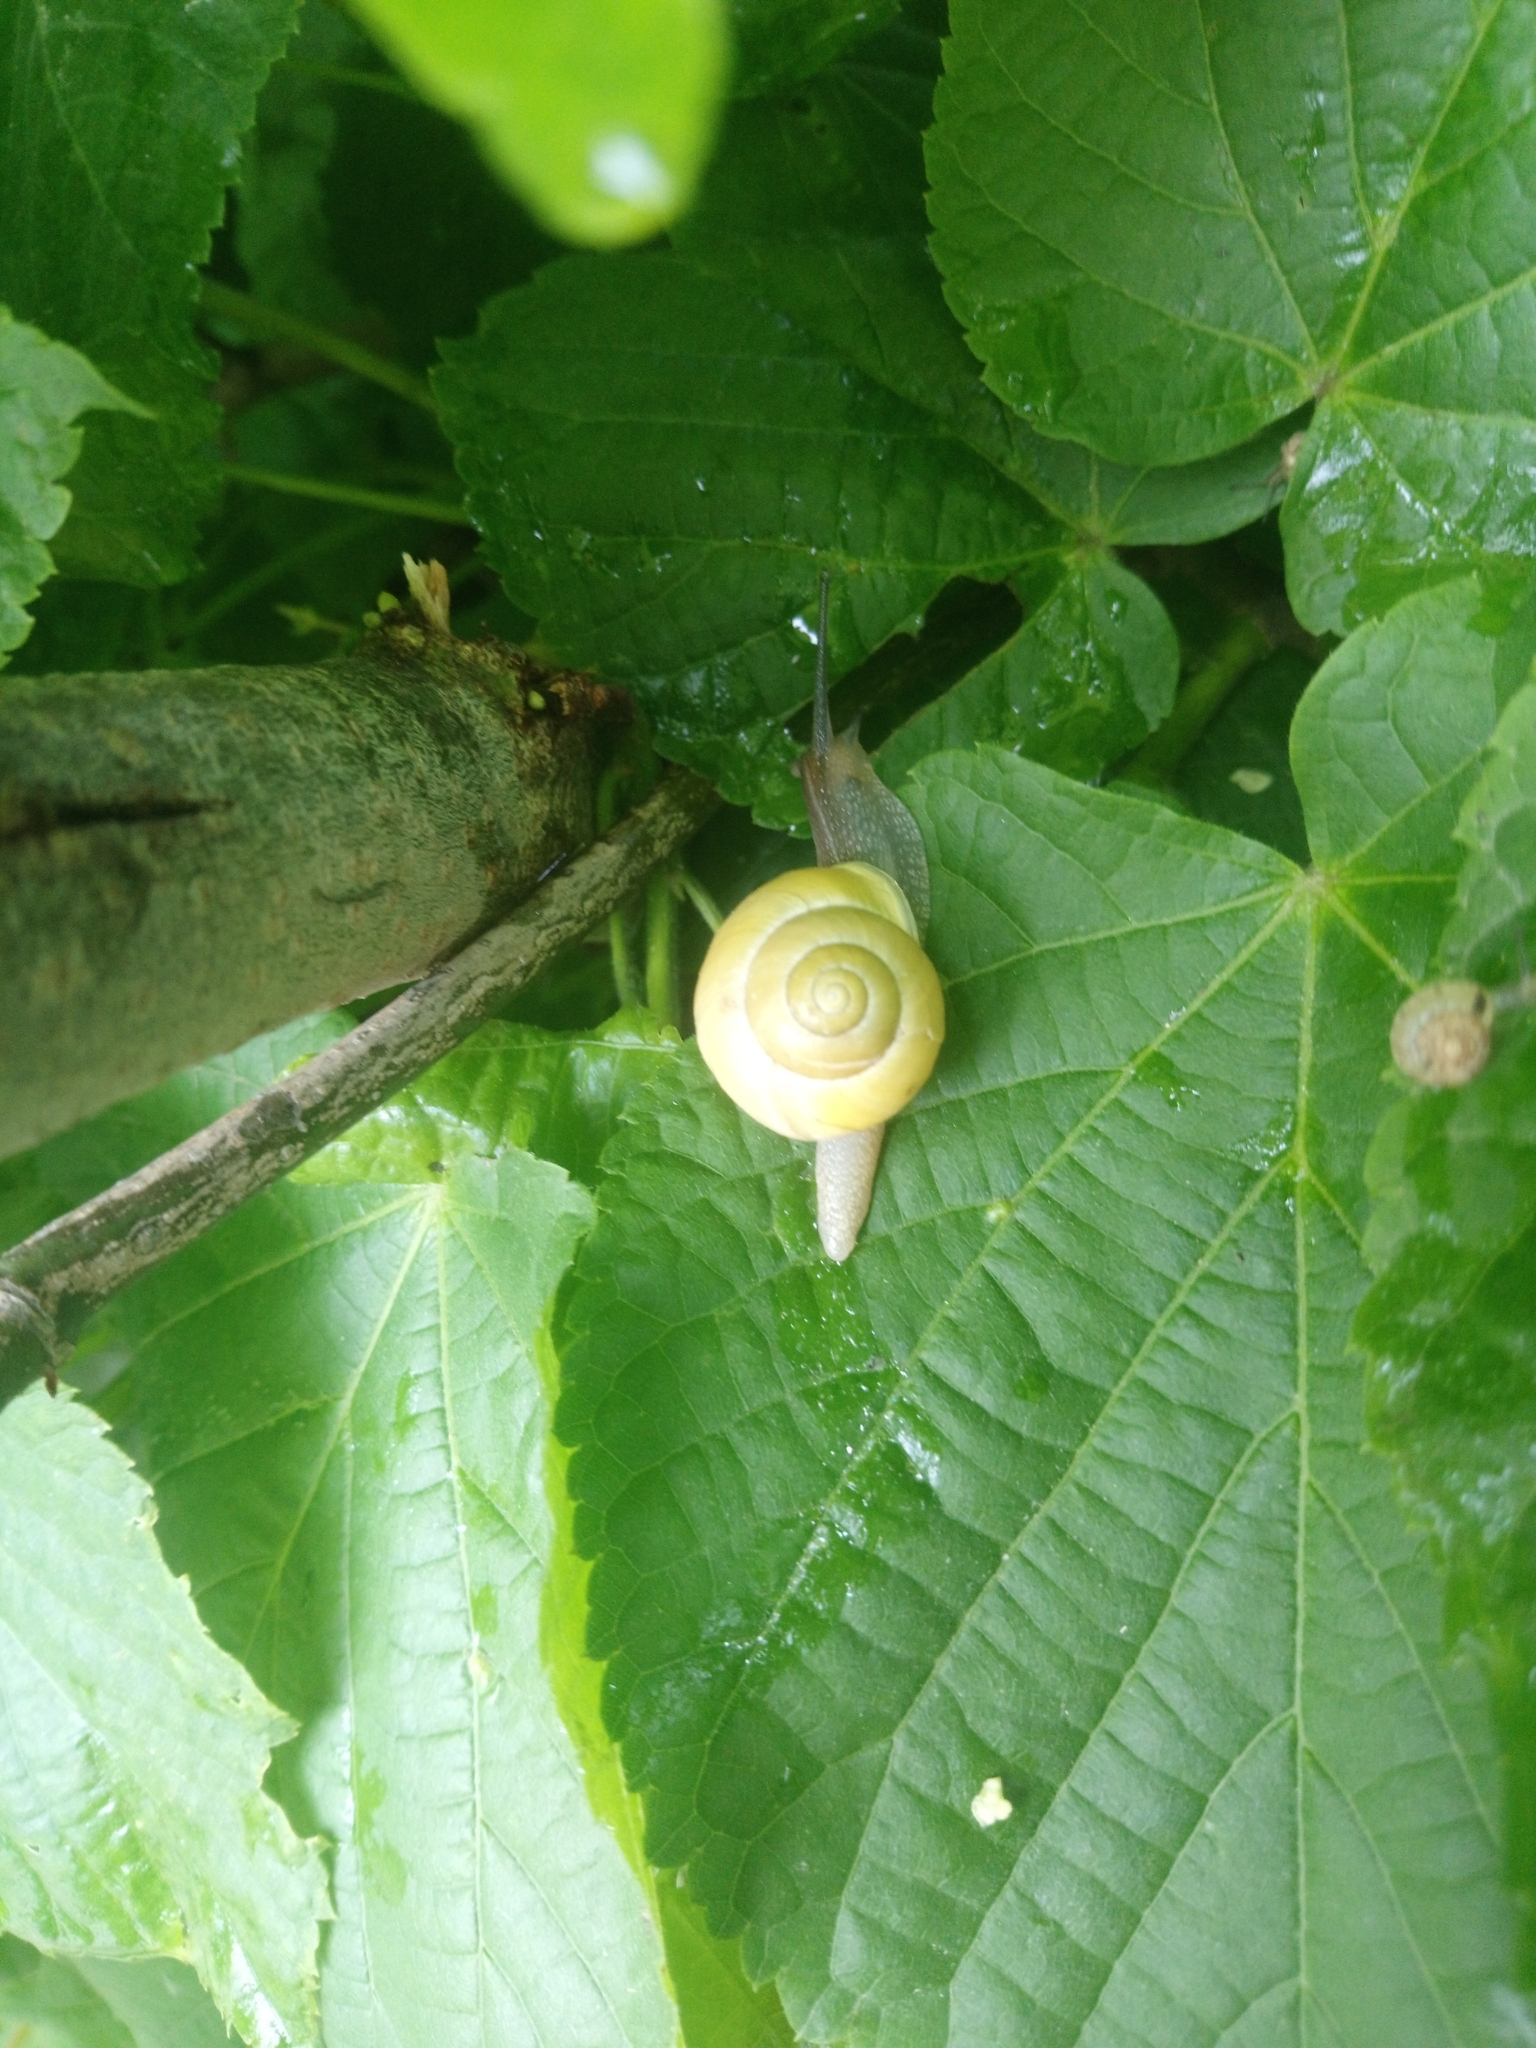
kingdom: Animalia
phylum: Mollusca
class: Gastropoda
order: Stylommatophora
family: Helicidae
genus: Cepaea
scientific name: Cepaea hortensis
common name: White-lip gardensnail
